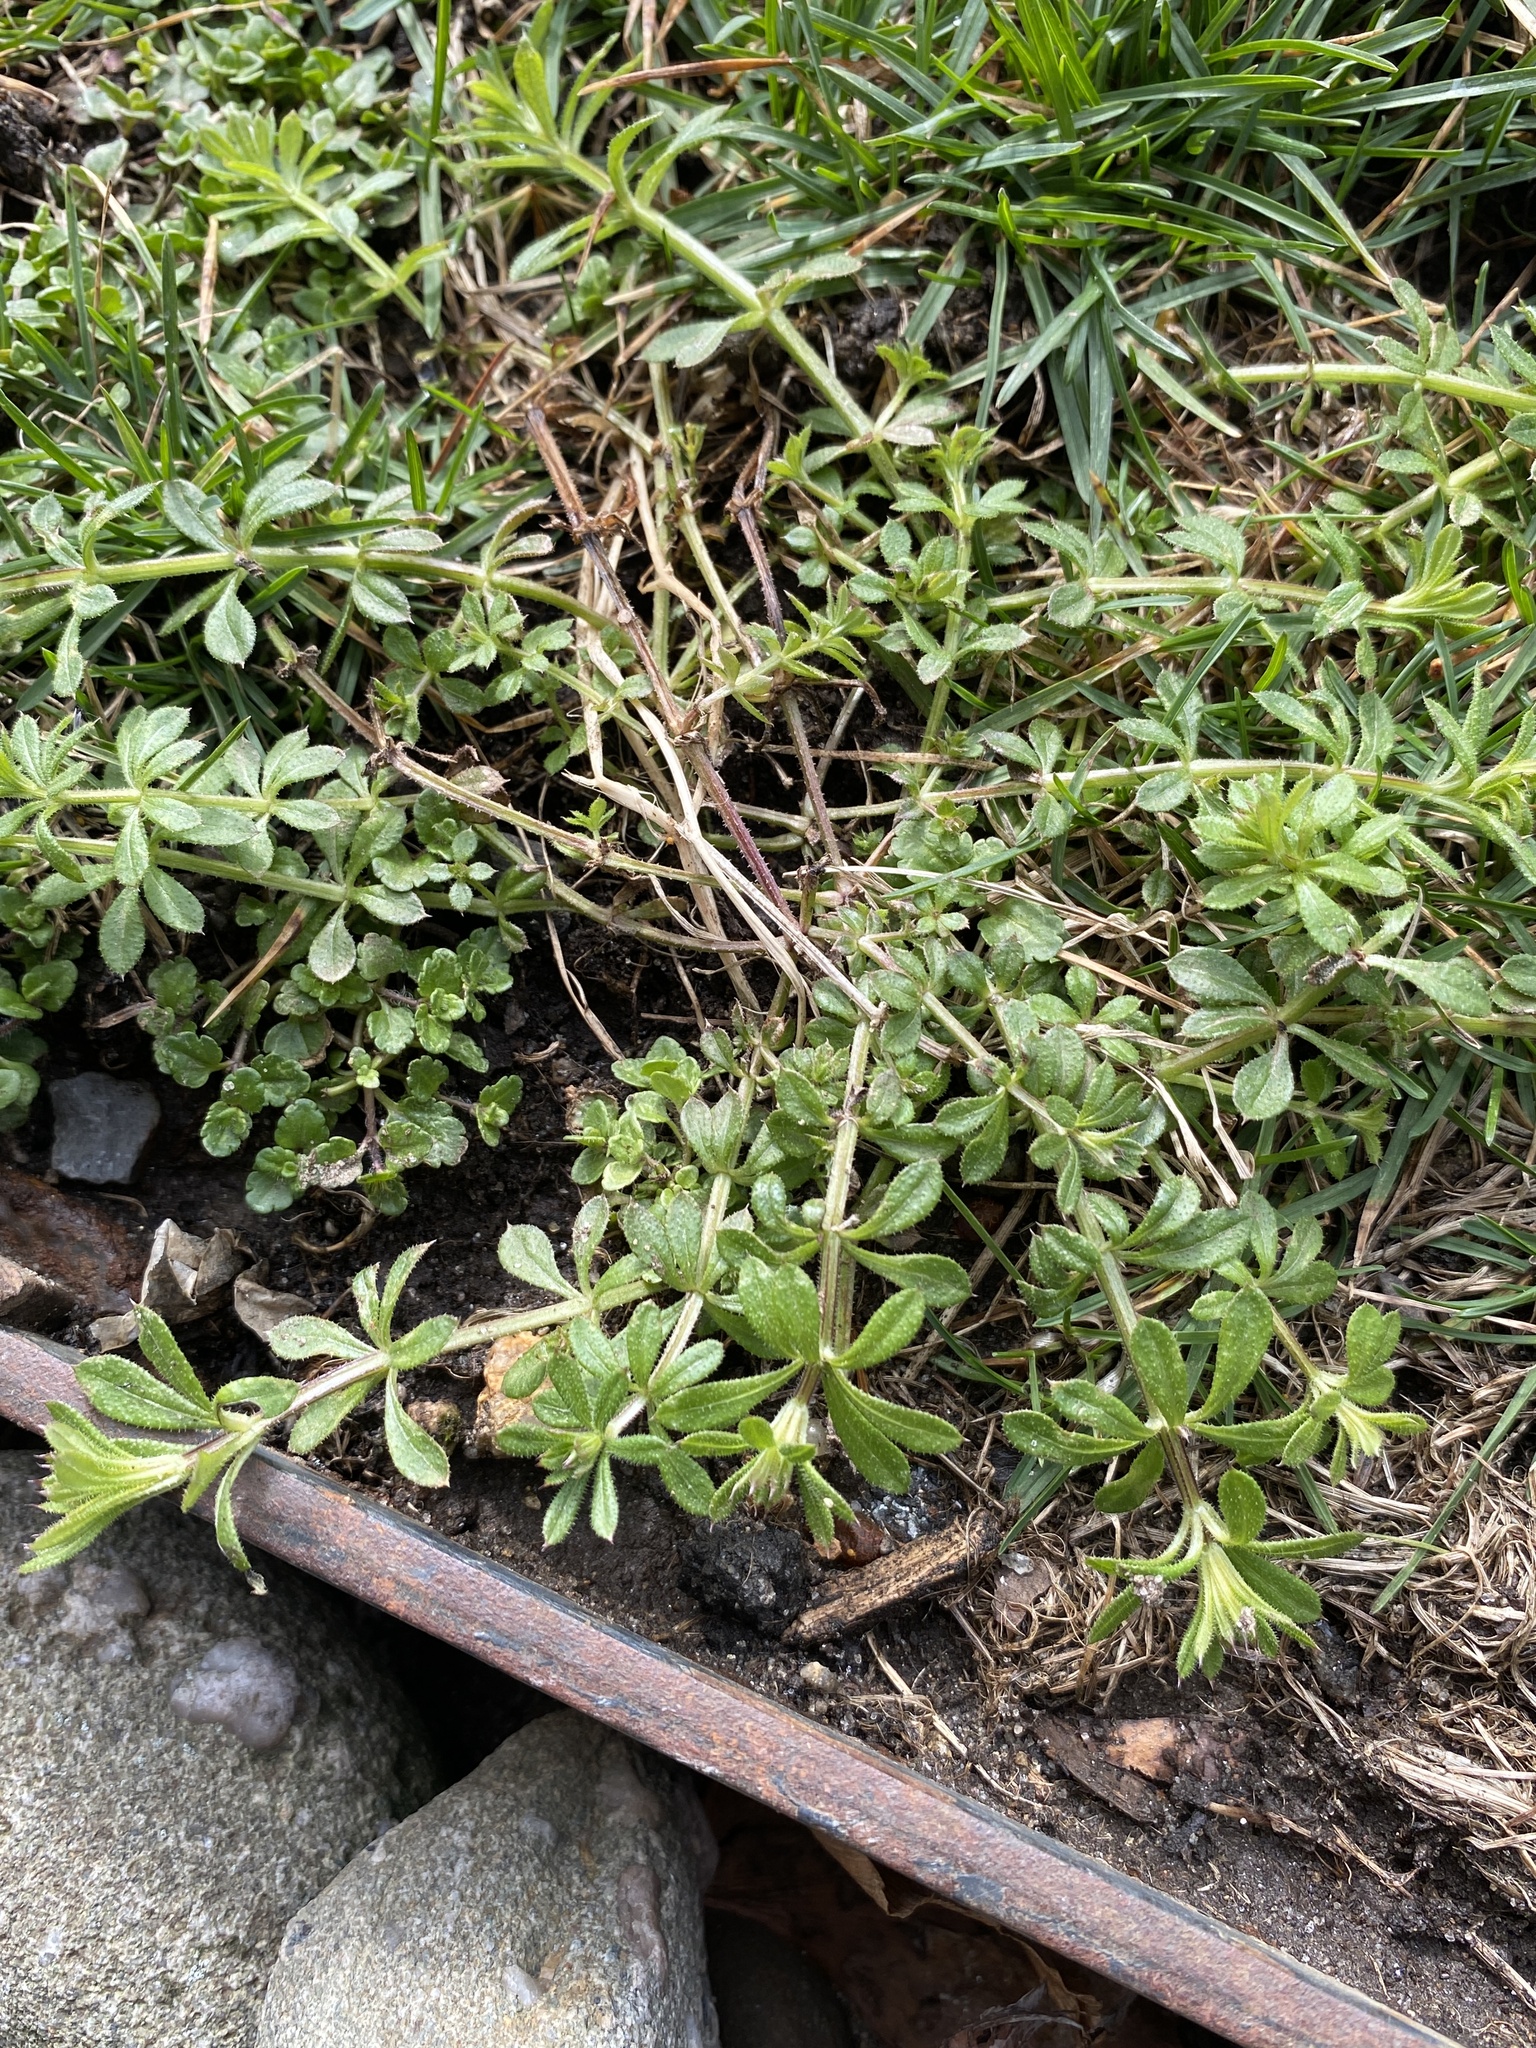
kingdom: Plantae
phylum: Tracheophyta
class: Magnoliopsida
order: Gentianales
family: Rubiaceae
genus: Galium
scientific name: Galium aparine
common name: Cleavers
